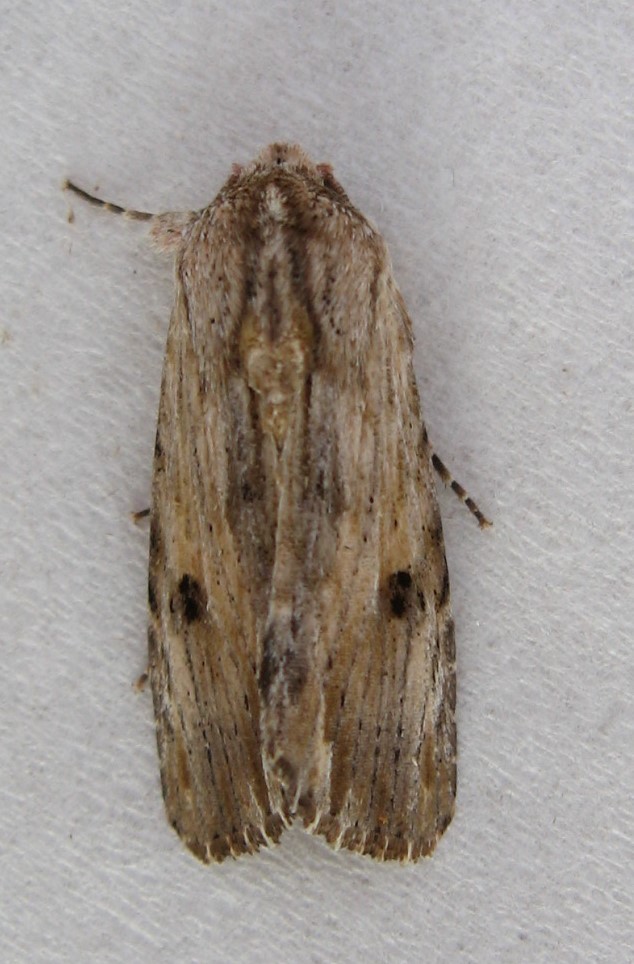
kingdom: Animalia
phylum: Arthropoda
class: Insecta
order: Lepidoptera
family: Noctuidae
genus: Spodoptera
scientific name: Spodoptera eridania
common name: Southern army worm
